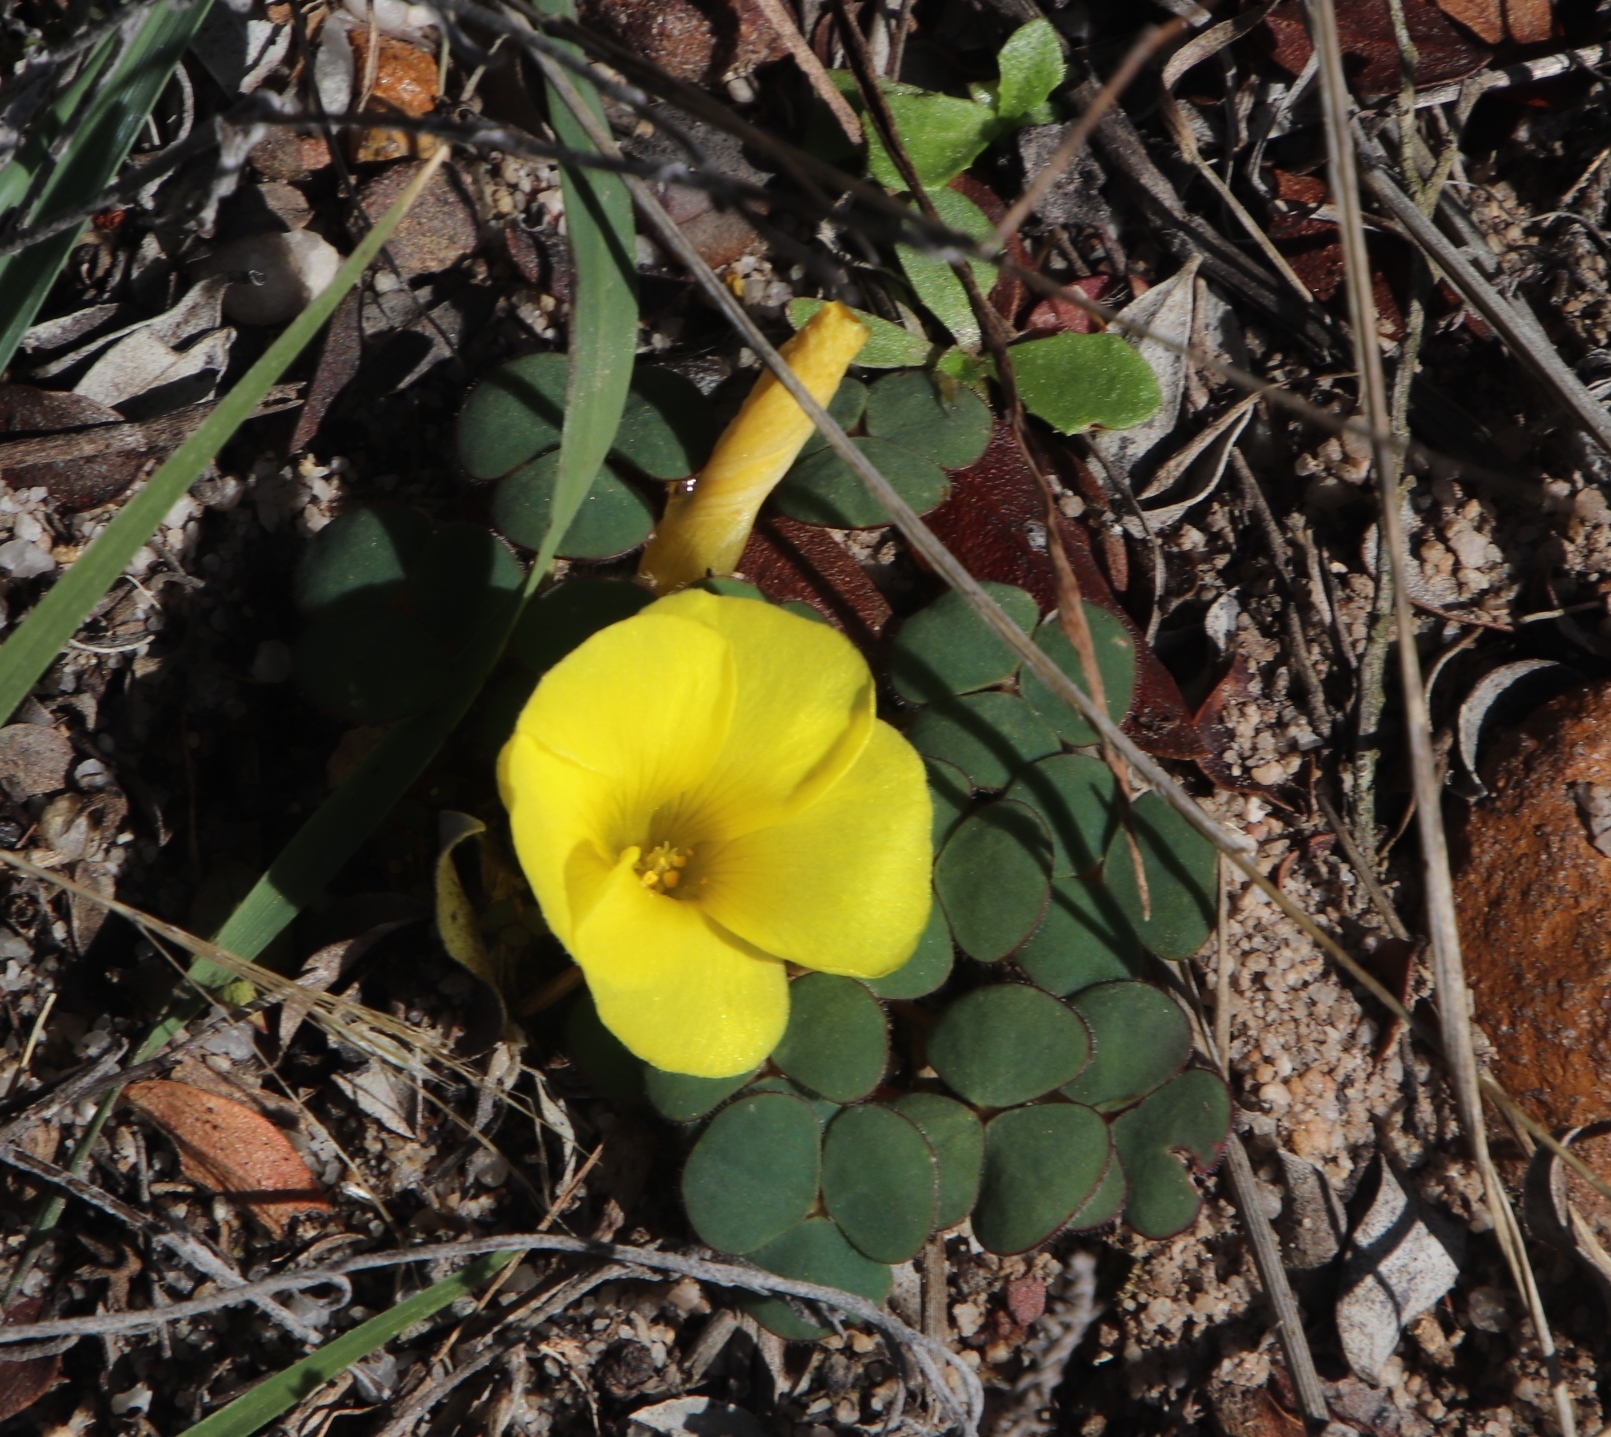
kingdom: Plantae
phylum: Tracheophyta
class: Magnoliopsida
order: Oxalidales
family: Oxalidaceae
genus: Oxalis
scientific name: Oxalis luteola
